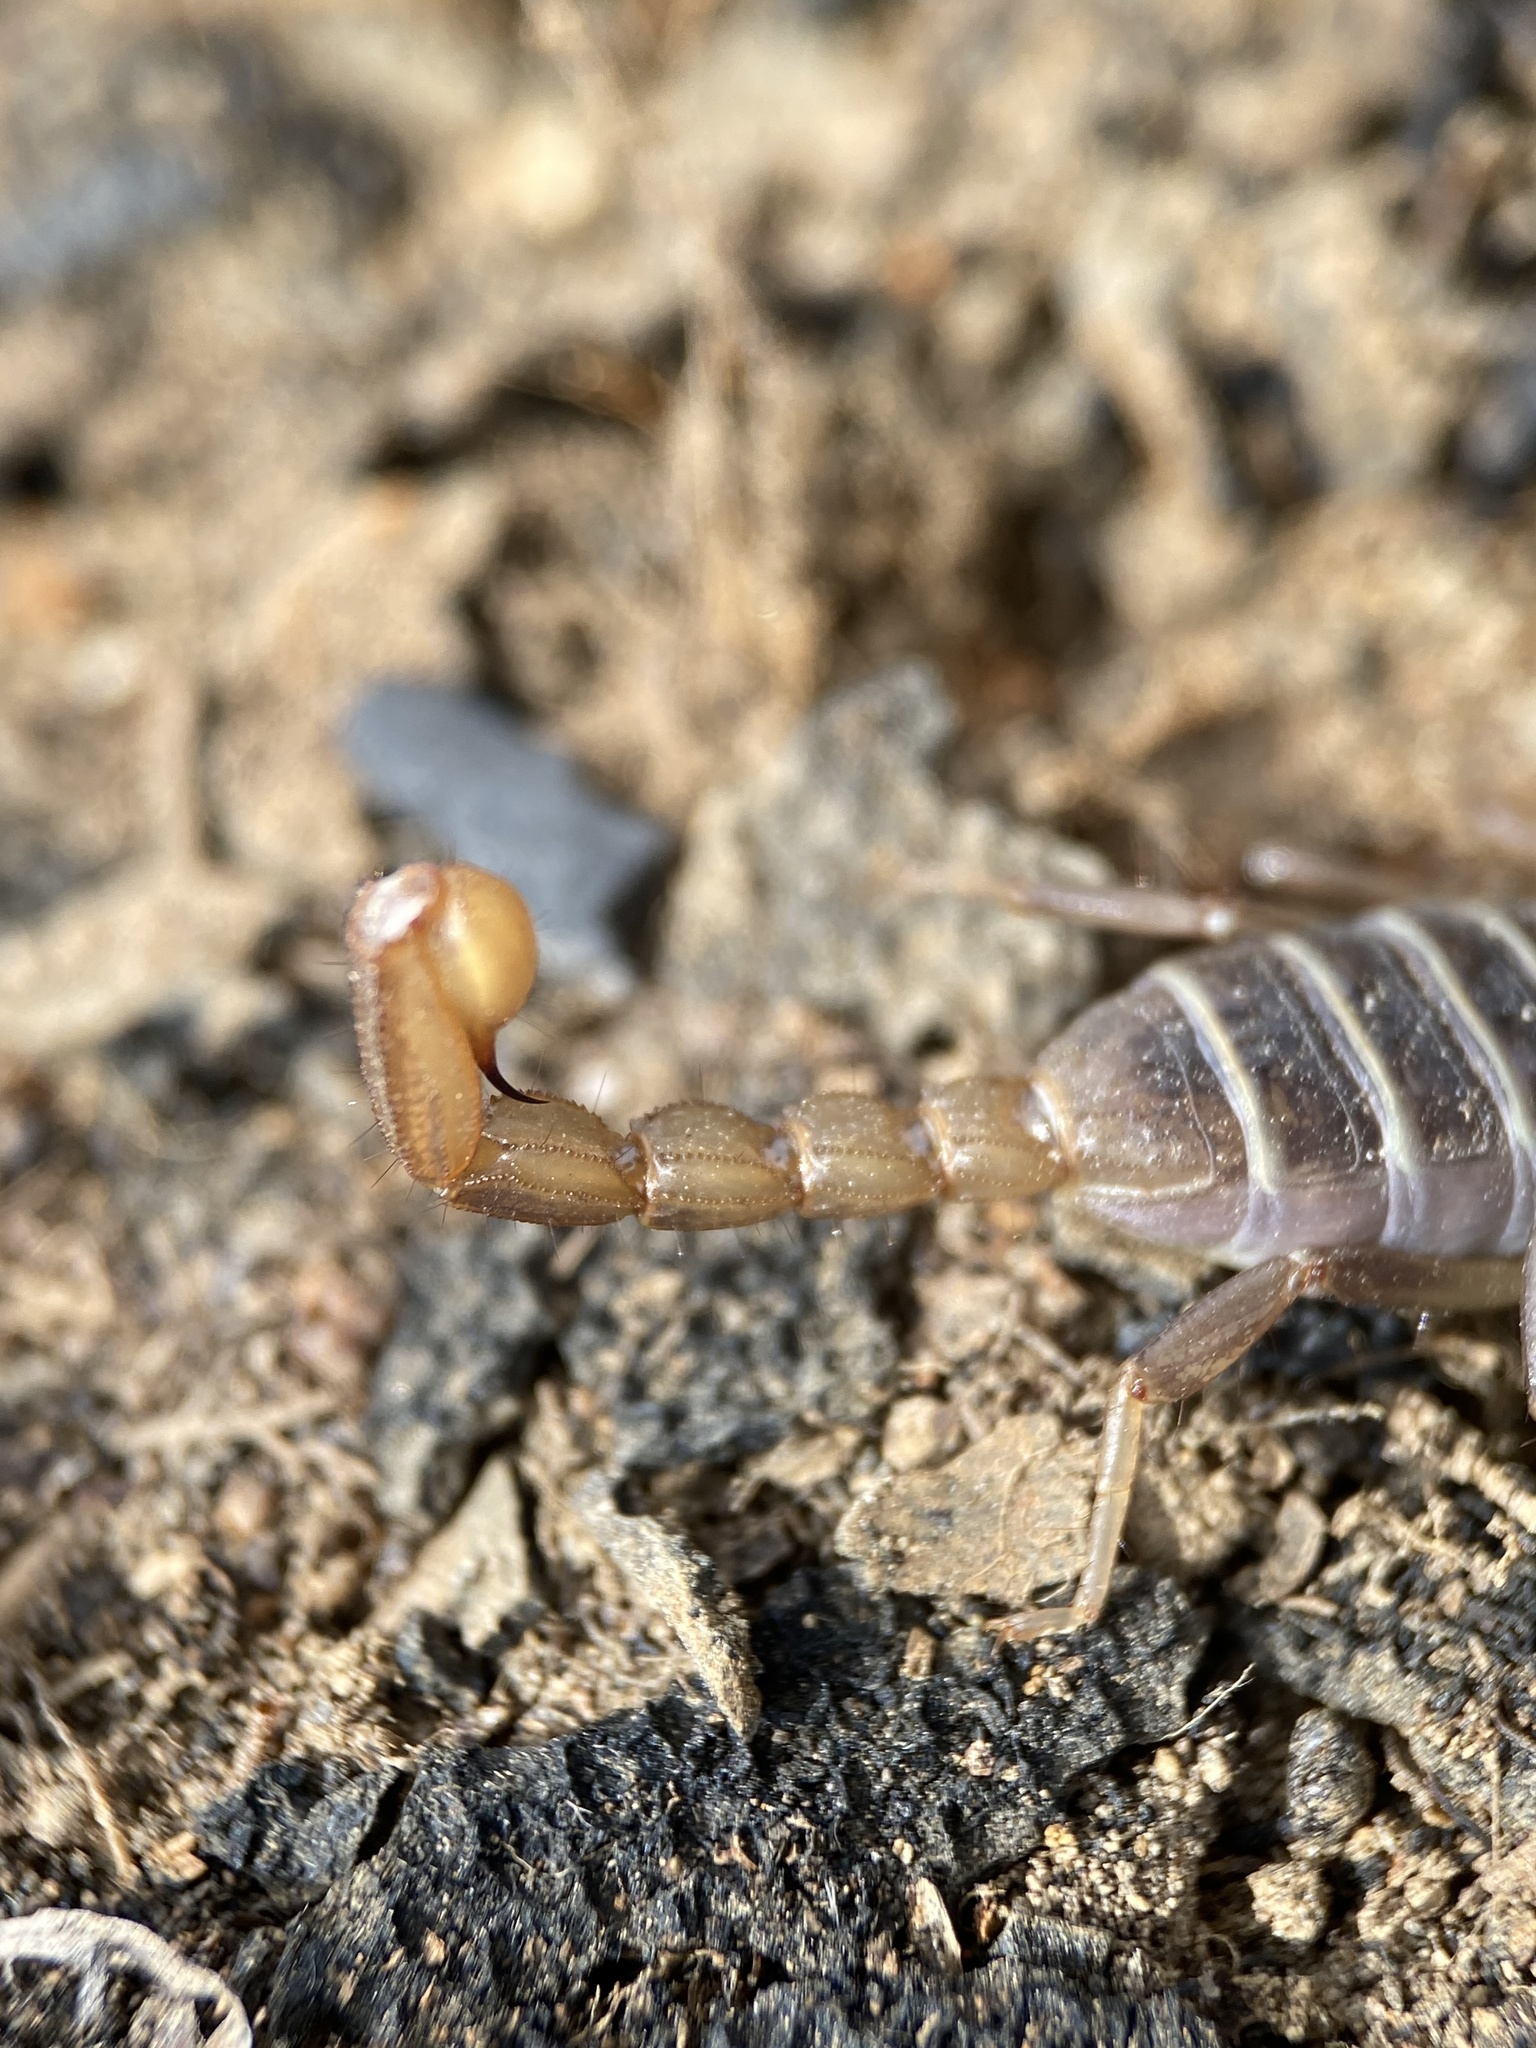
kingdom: Animalia
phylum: Arthropoda
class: Arachnida
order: Scorpiones
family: Vaejovidae
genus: Paruroctonus
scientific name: Paruroctonus boreus
